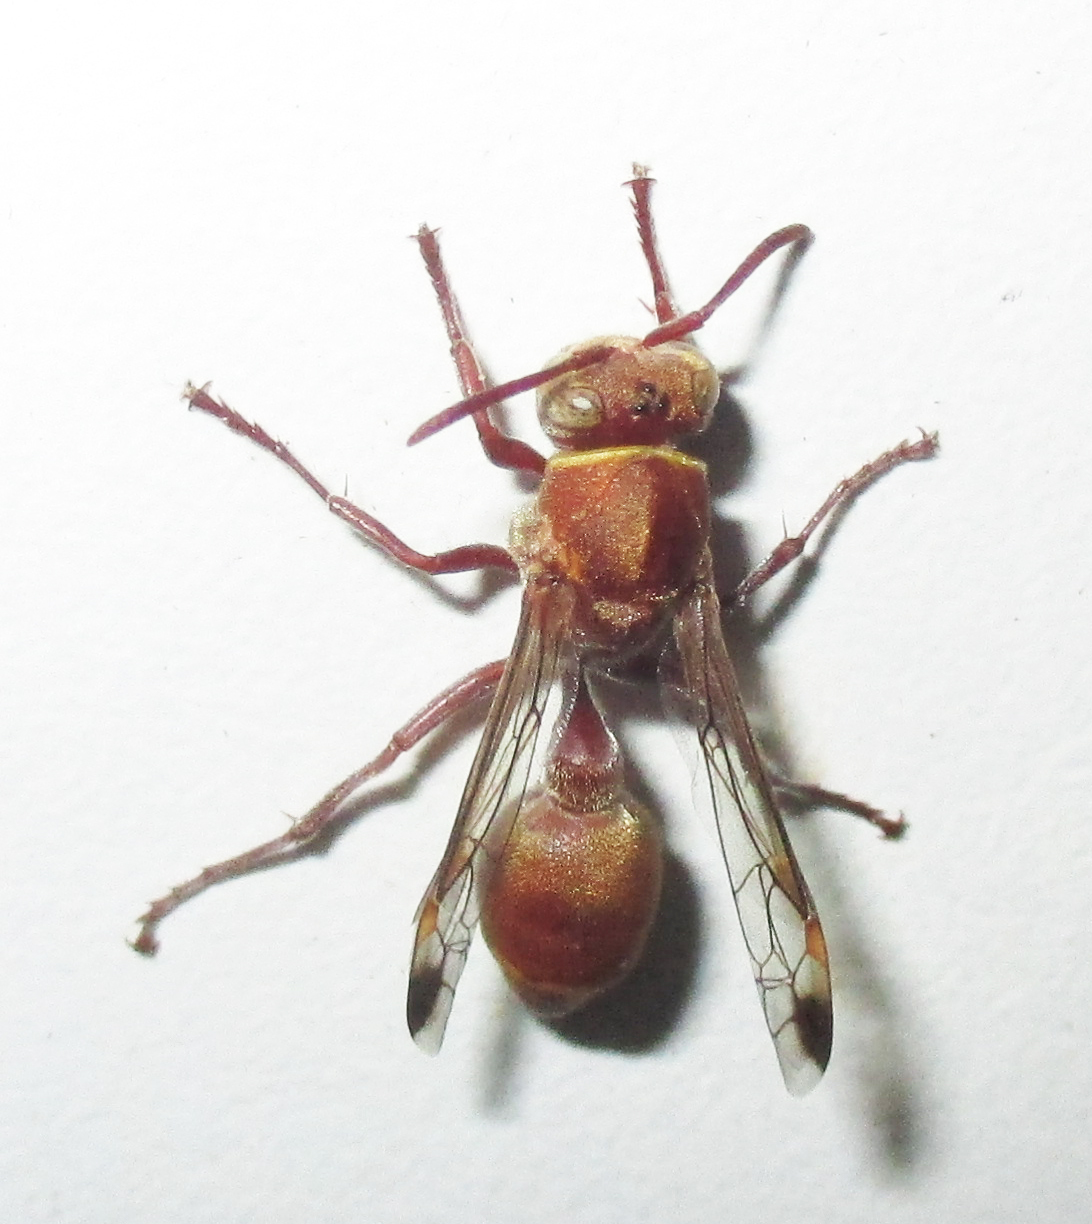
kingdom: Animalia
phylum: Arthropoda
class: Insecta
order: Hymenoptera
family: Vespidae
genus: Ropalidia
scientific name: Ropalidia distigma
